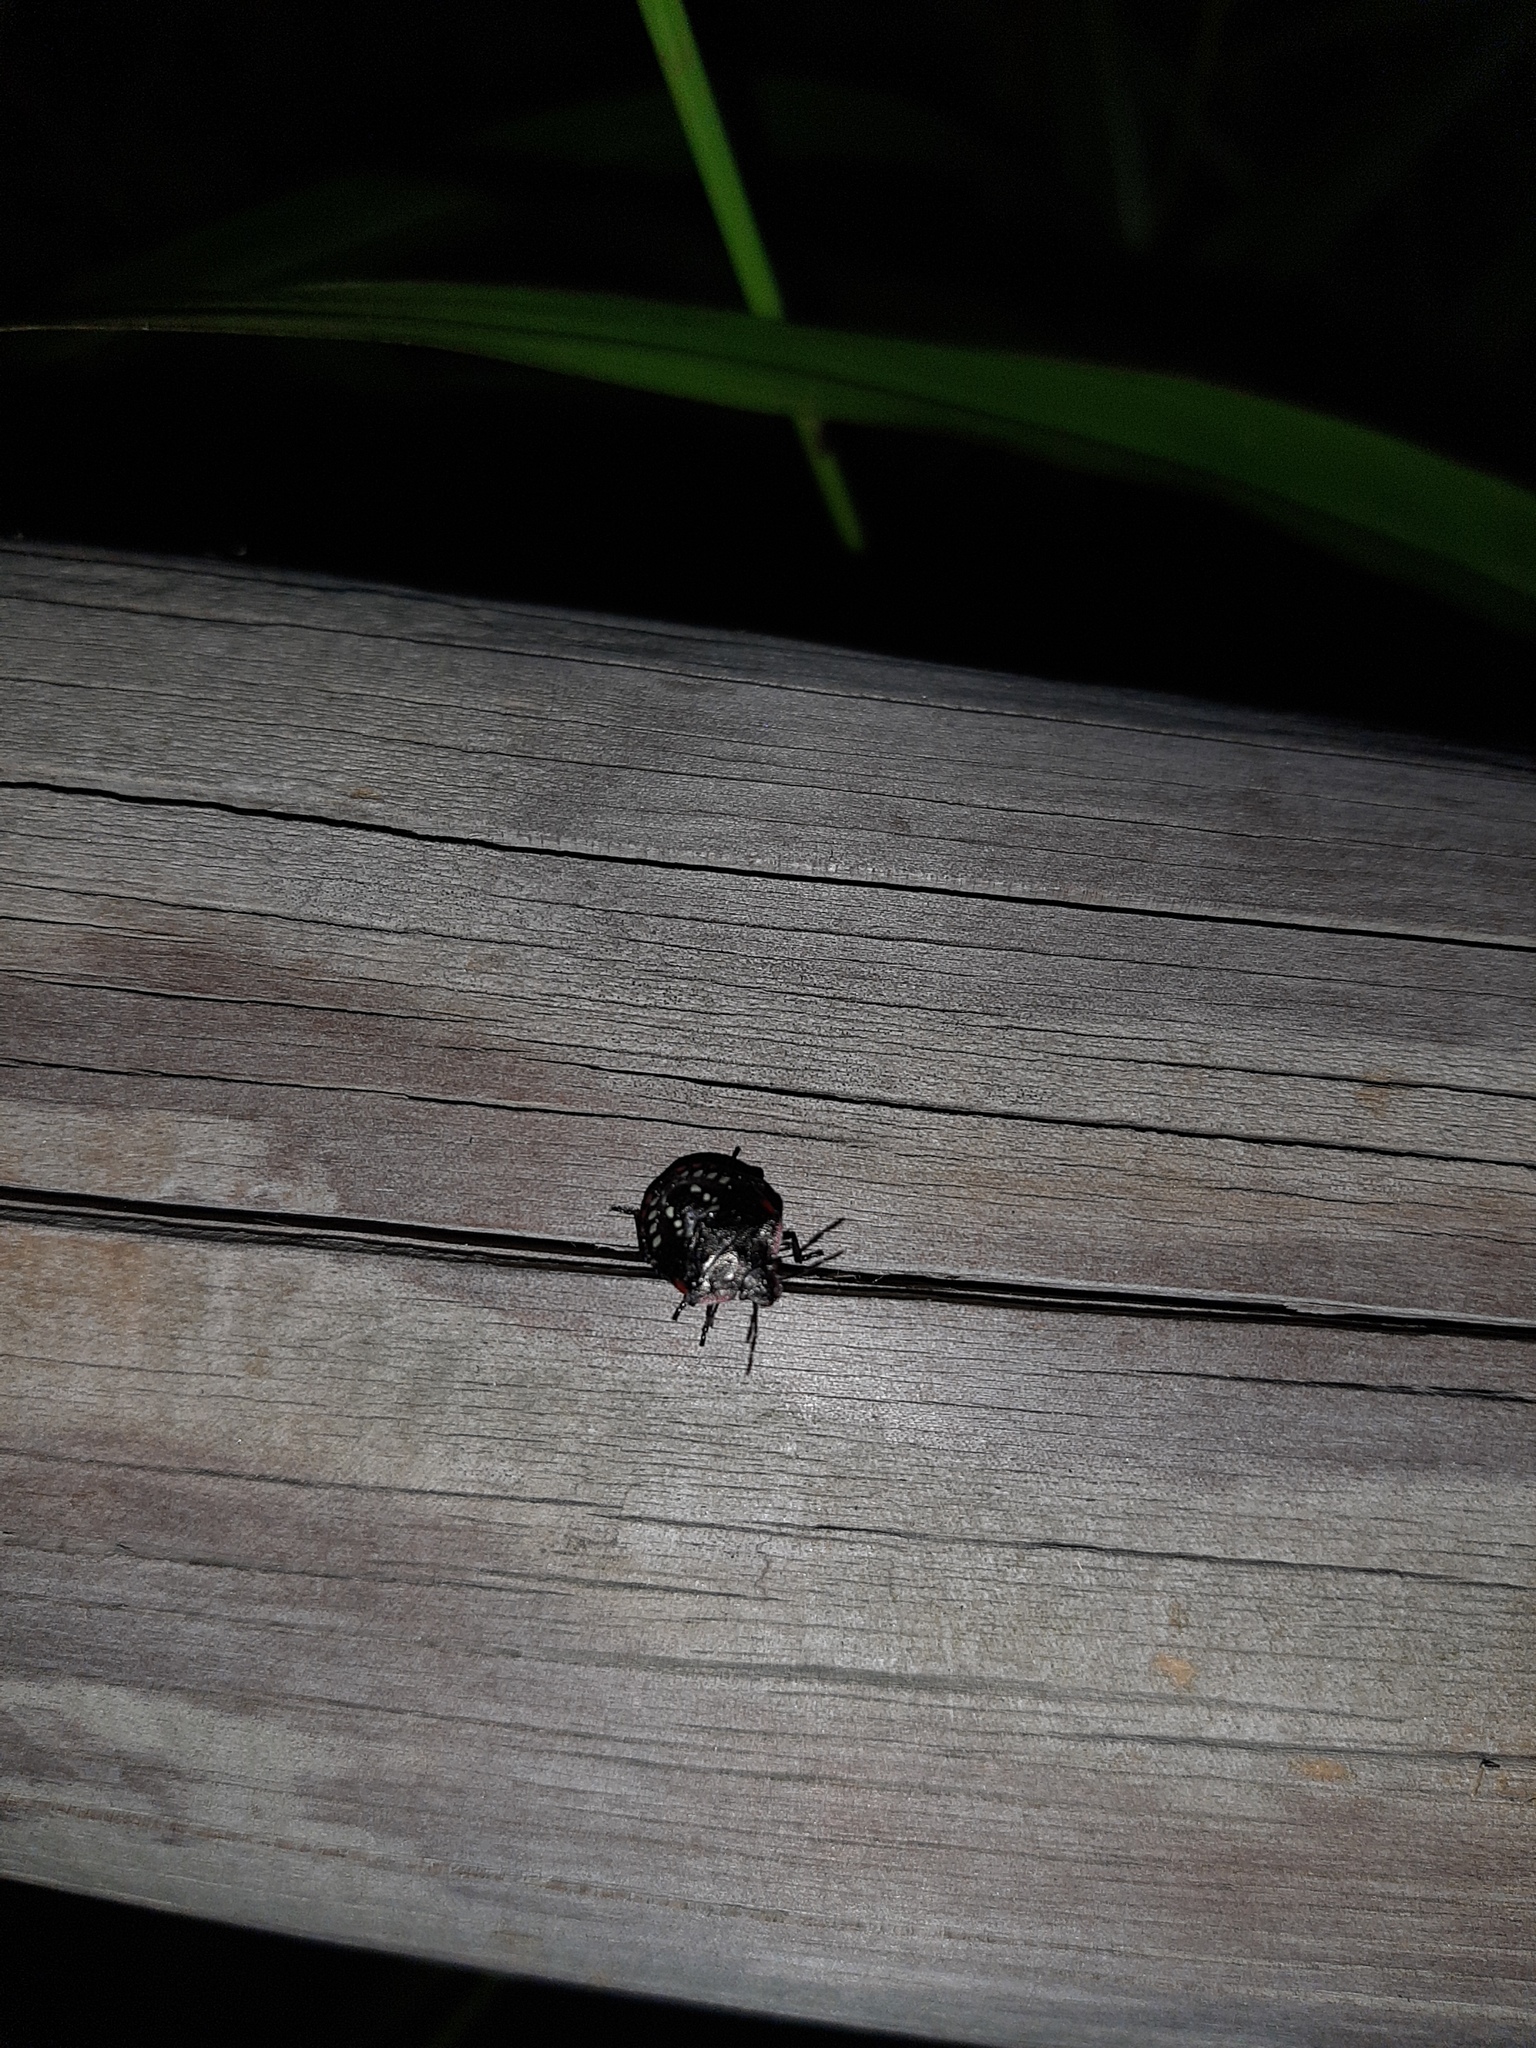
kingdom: Animalia
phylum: Arthropoda
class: Insecta
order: Hemiptera
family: Pentatomidae
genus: Nezara
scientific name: Nezara viridula
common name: Southern green stink bug
